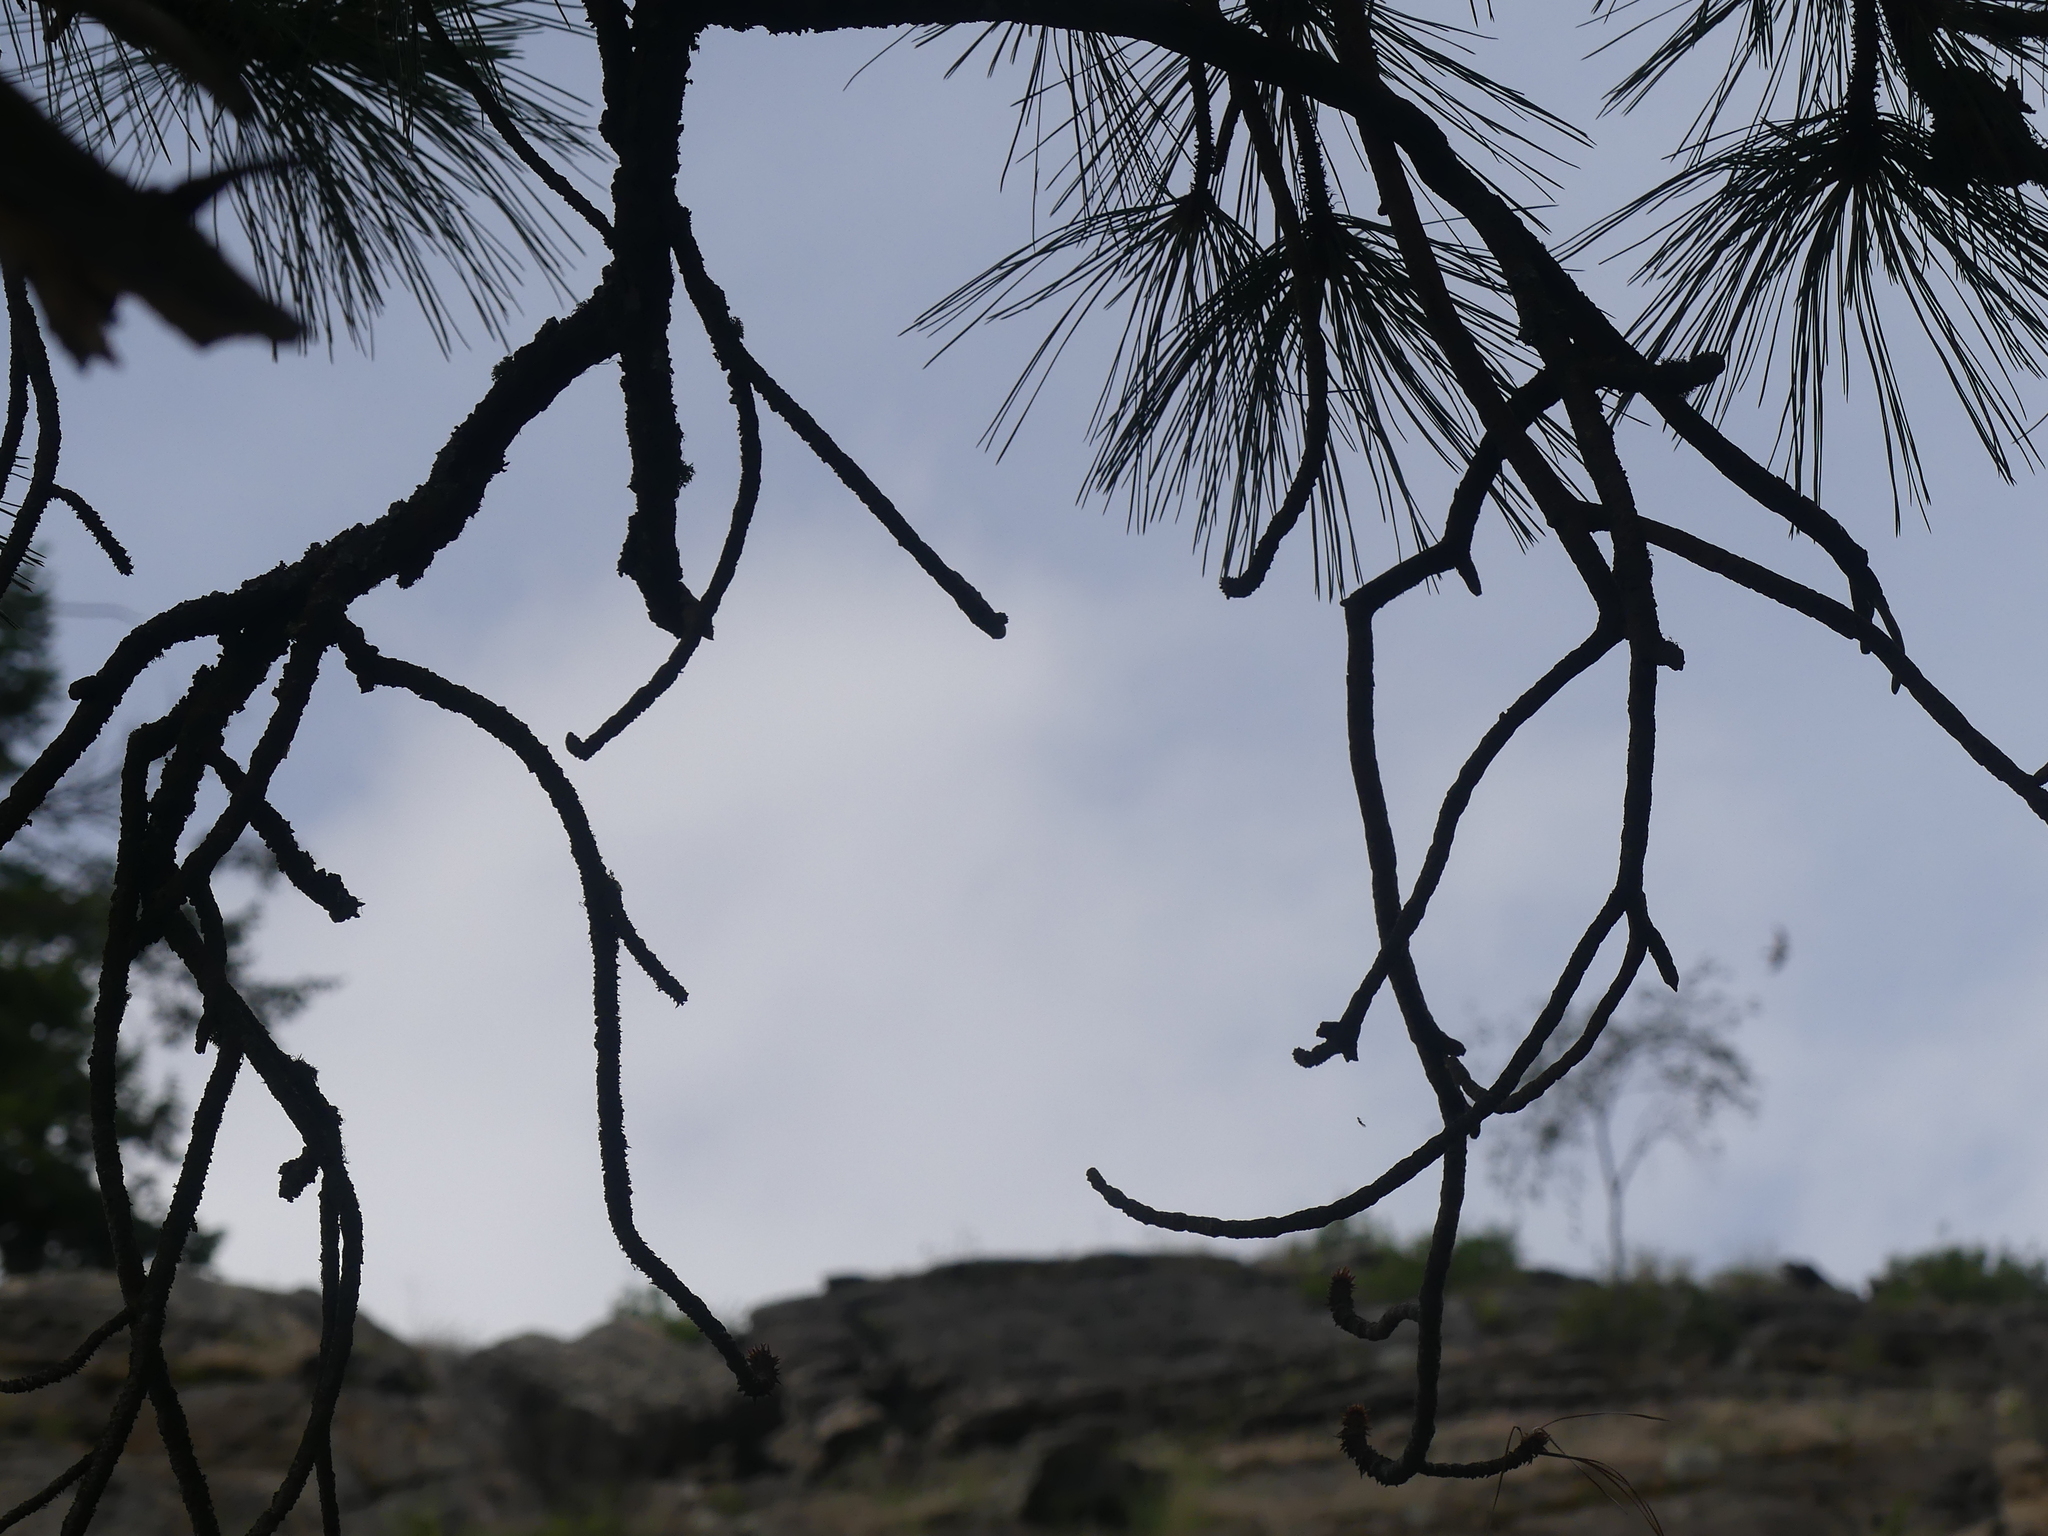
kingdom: Plantae
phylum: Tracheophyta
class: Pinopsida
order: Pinales
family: Pinaceae
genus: Pinus
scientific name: Pinus ponderosa
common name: Western yellow-pine
